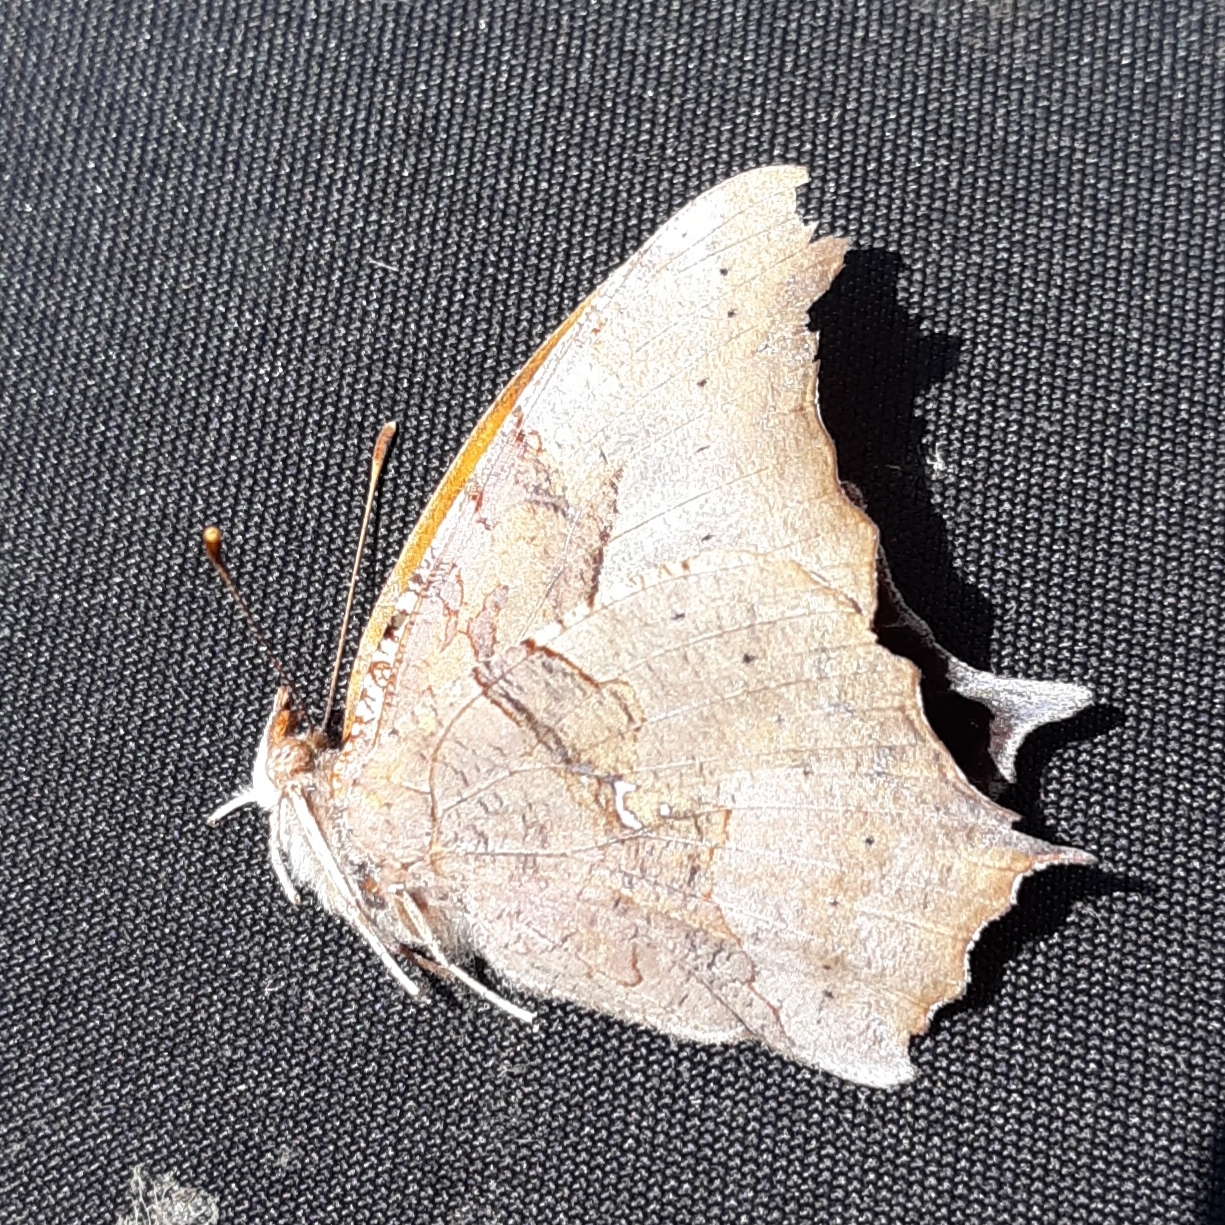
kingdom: Animalia
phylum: Arthropoda
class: Insecta
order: Lepidoptera
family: Nymphalidae
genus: Polygonia
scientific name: Polygonia interrogationis
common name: Question mark
